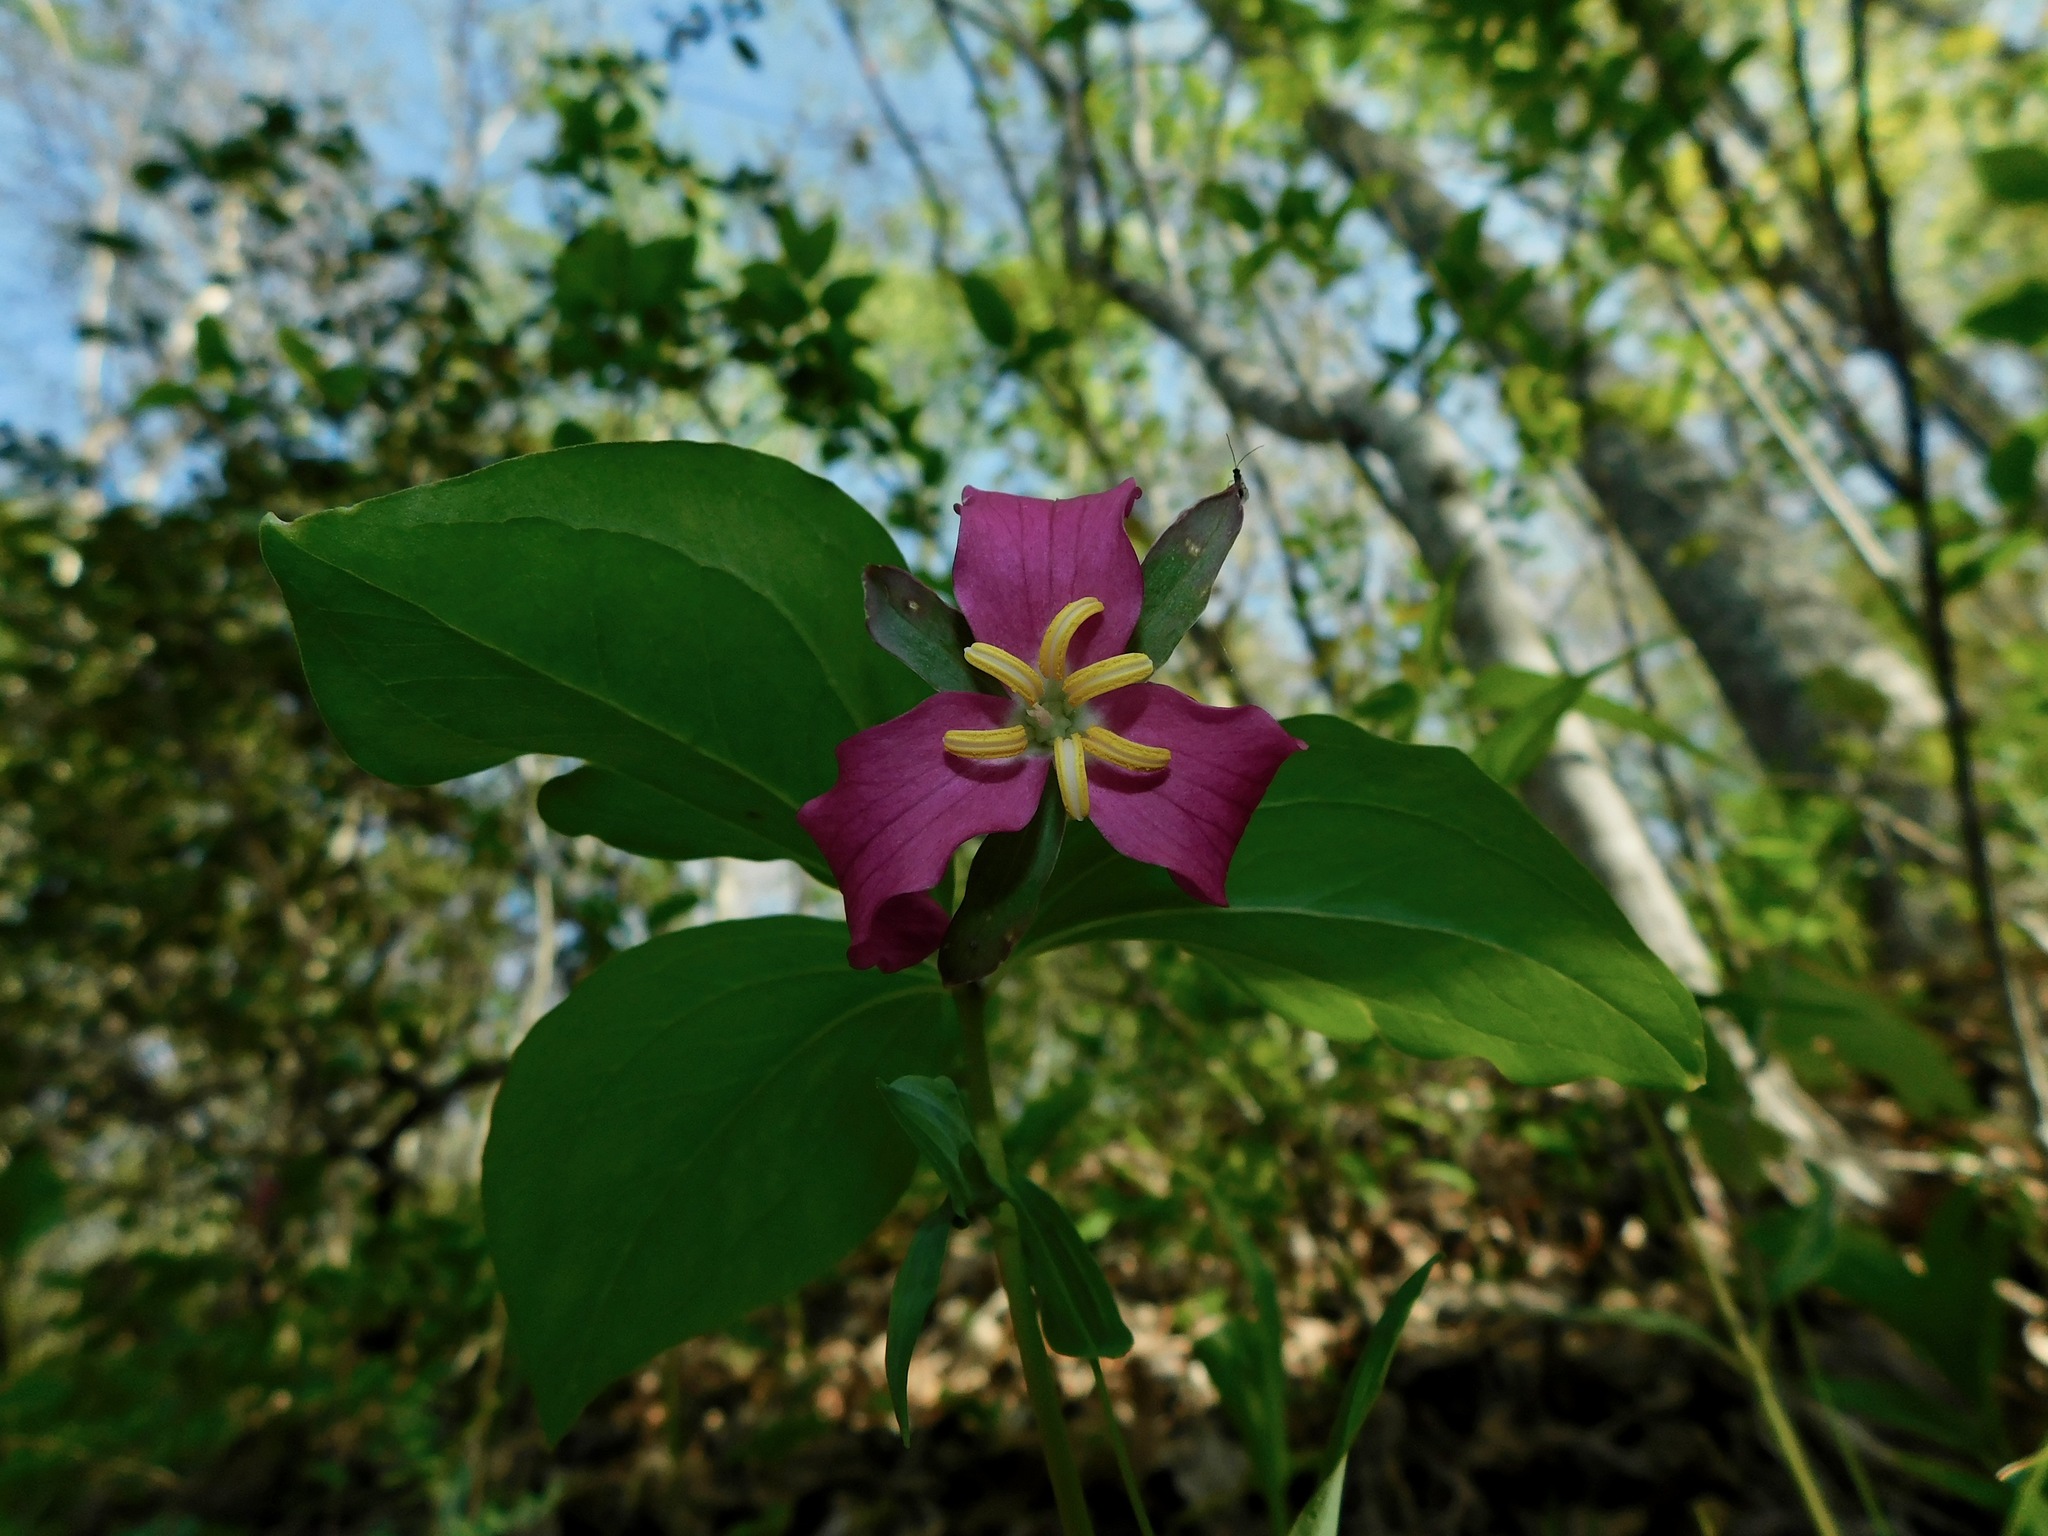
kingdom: Plantae
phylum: Tracheophyta
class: Liliopsida
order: Liliales
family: Melanthiaceae
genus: Trillium
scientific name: Trillium catesbaei
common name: Bashful trillium
